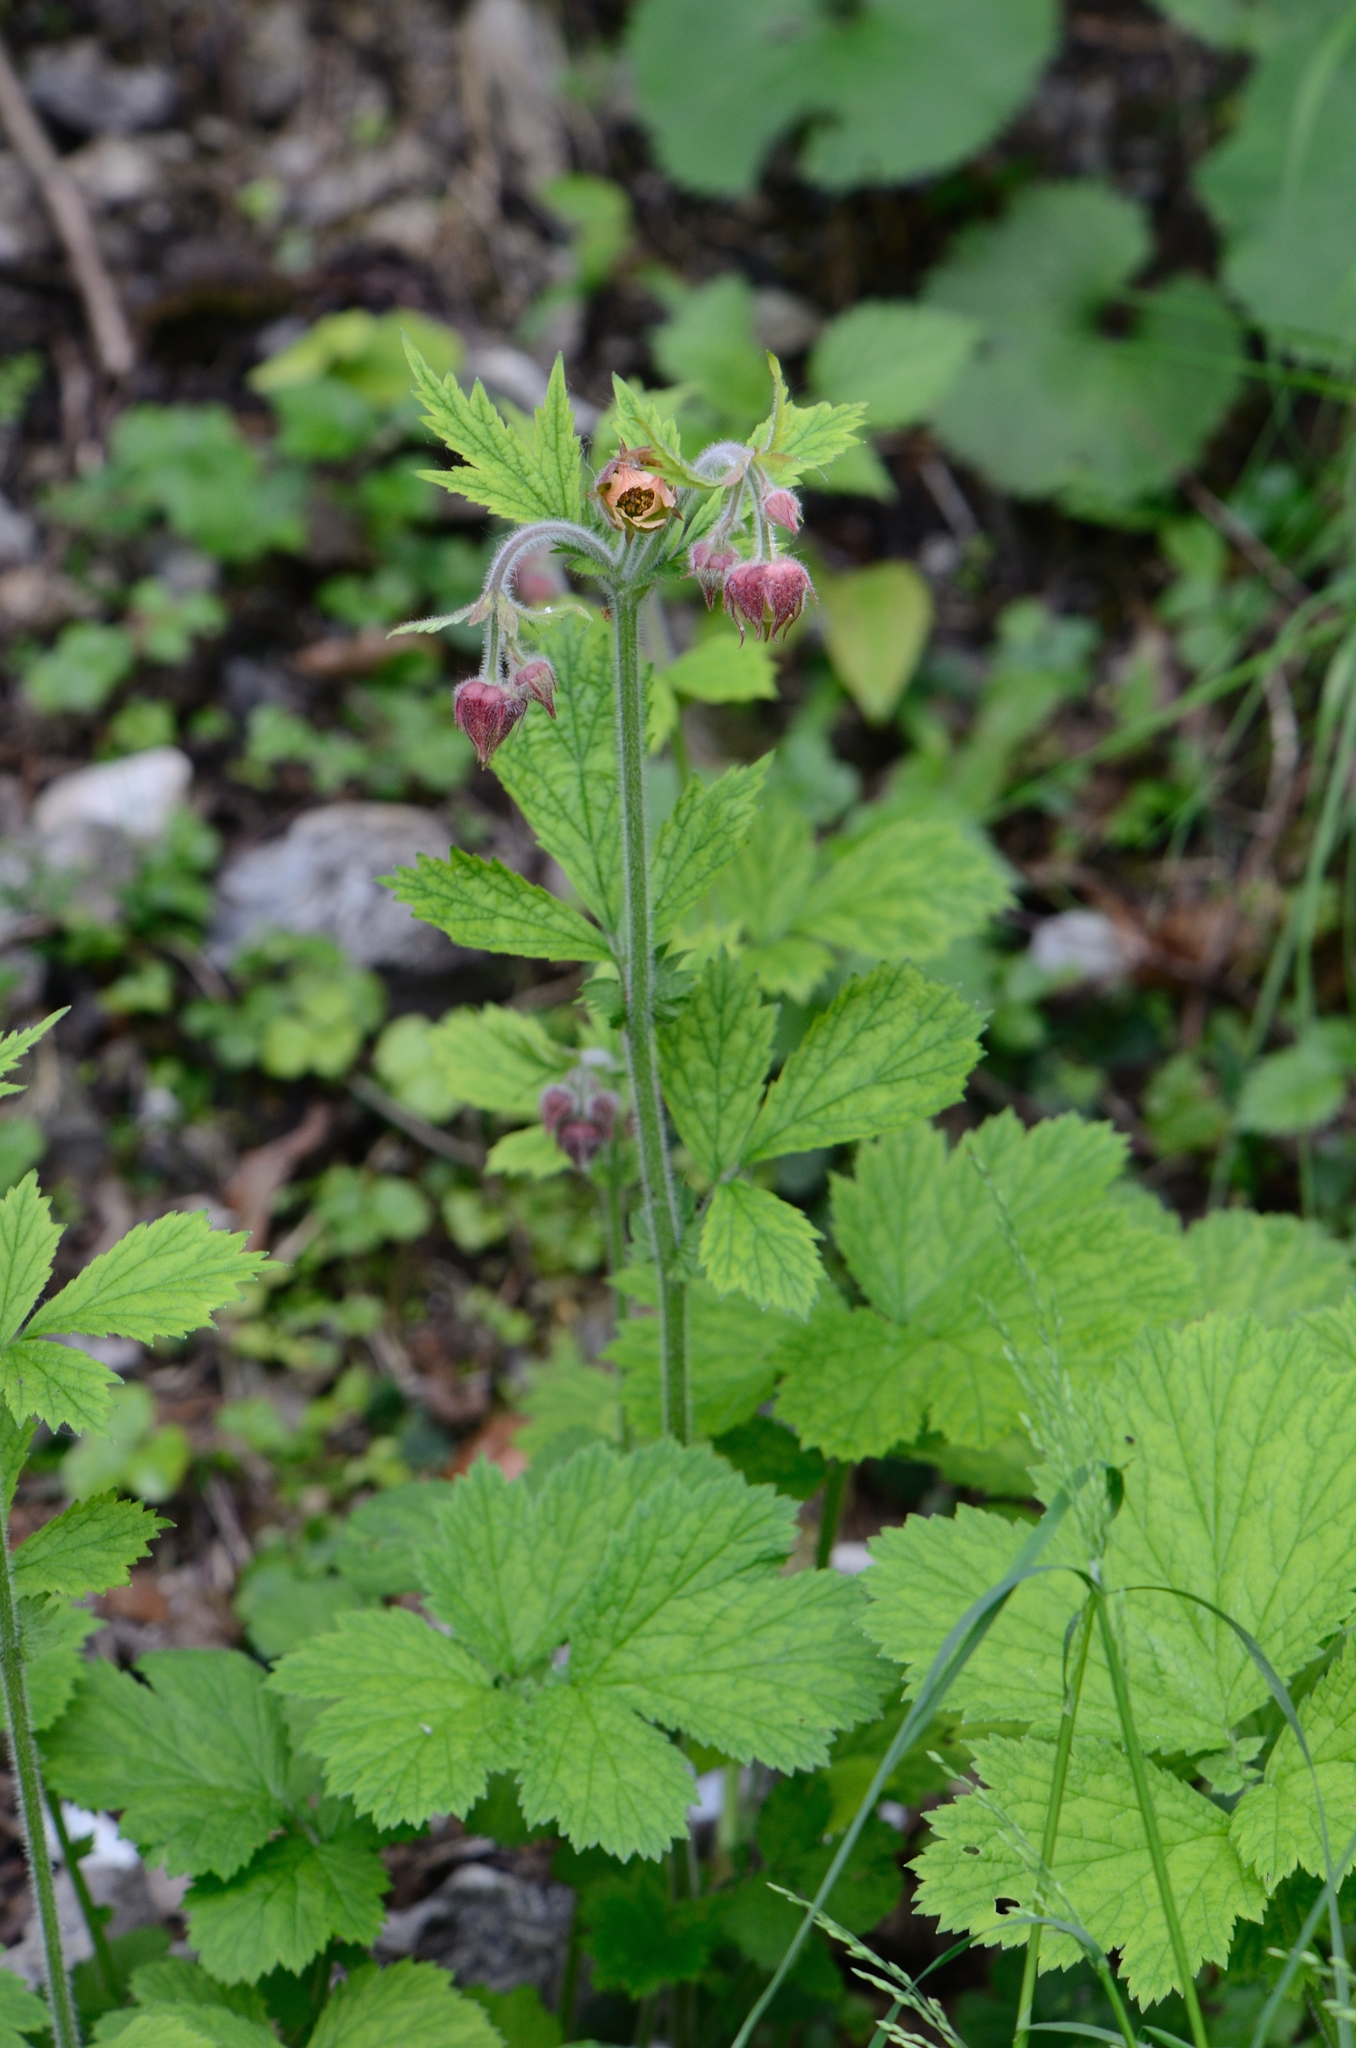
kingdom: Plantae
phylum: Tracheophyta
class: Magnoliopsida
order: Rosales
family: Rosaceae
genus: Geum
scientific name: Geum rivale
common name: Water avens
